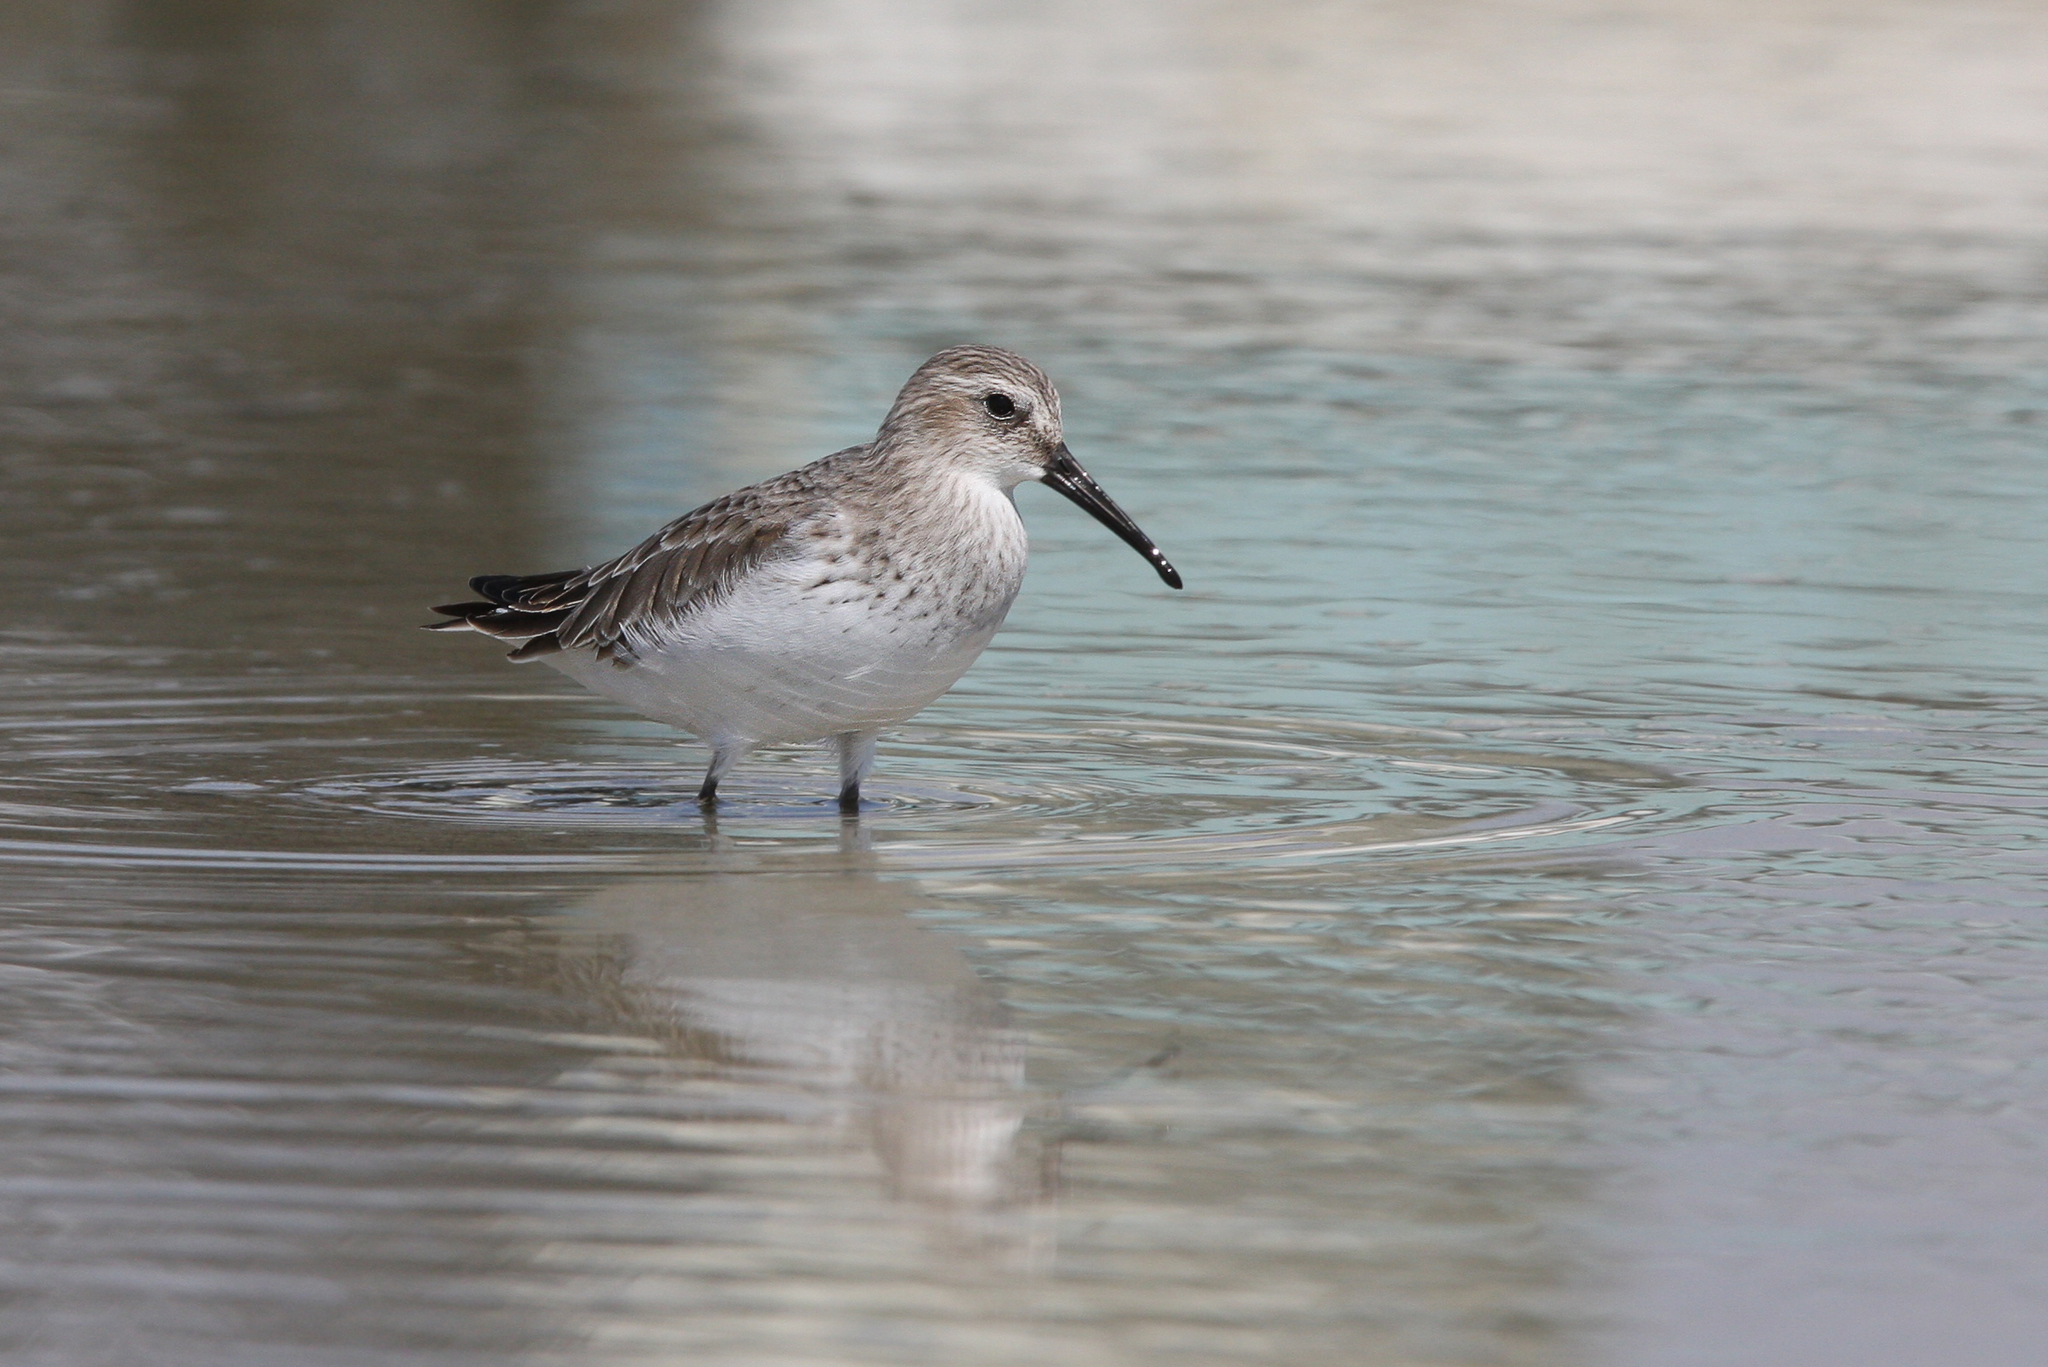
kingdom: Animalia
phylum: Chordata
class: Aves
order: Charadriiformes
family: Scolopacidae
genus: Calidris
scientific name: Calidris alpina
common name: Dunlin
